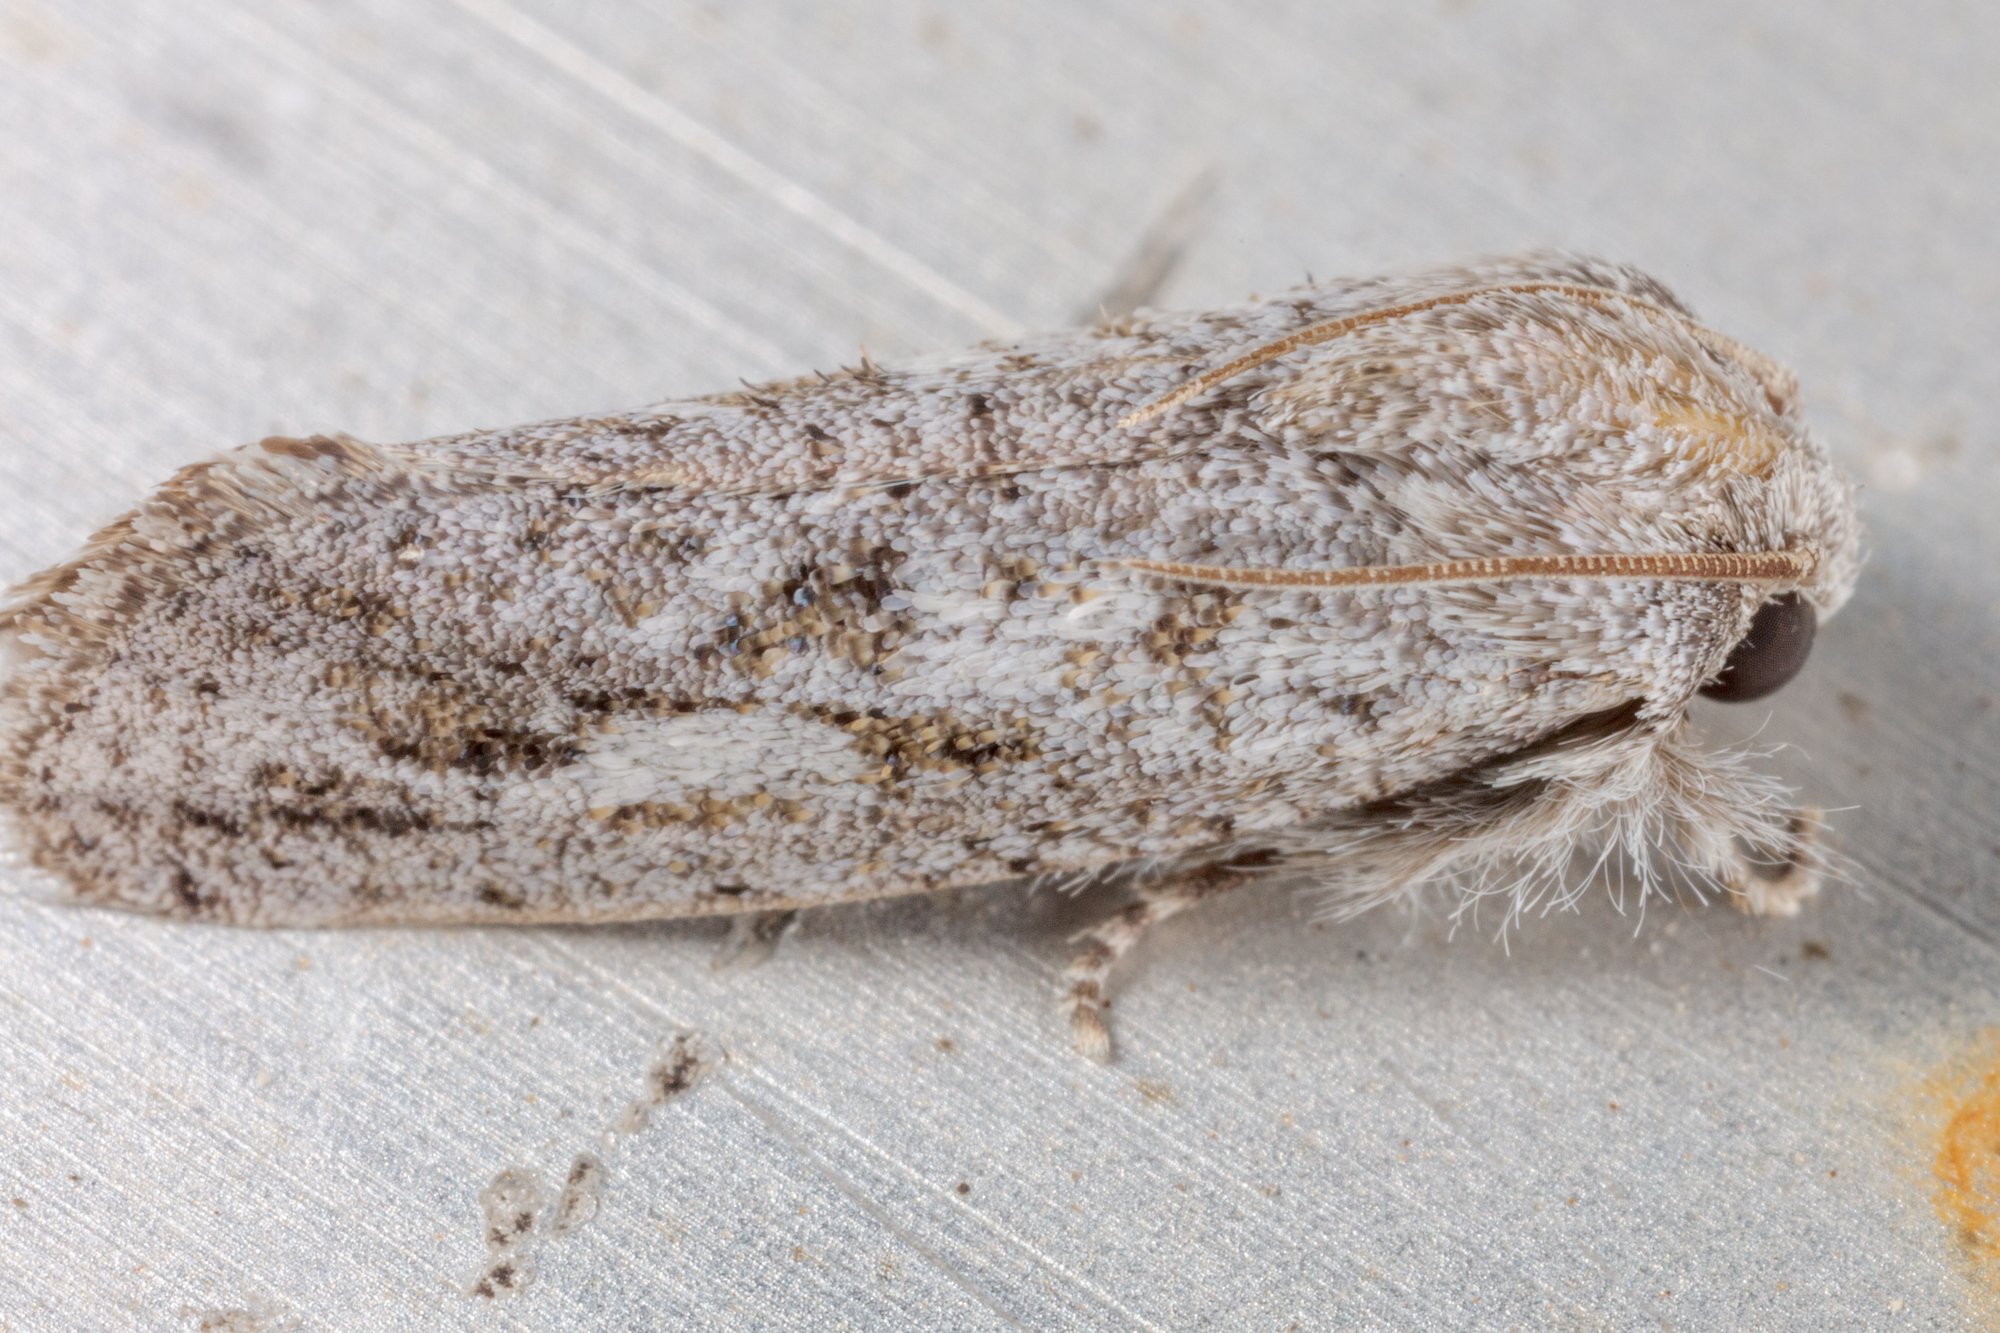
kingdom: Animalia
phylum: Arthropoda
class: Insecta
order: Lepidoptera
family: Tineidae
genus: Acrolophus
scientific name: Acrolophus griseus
